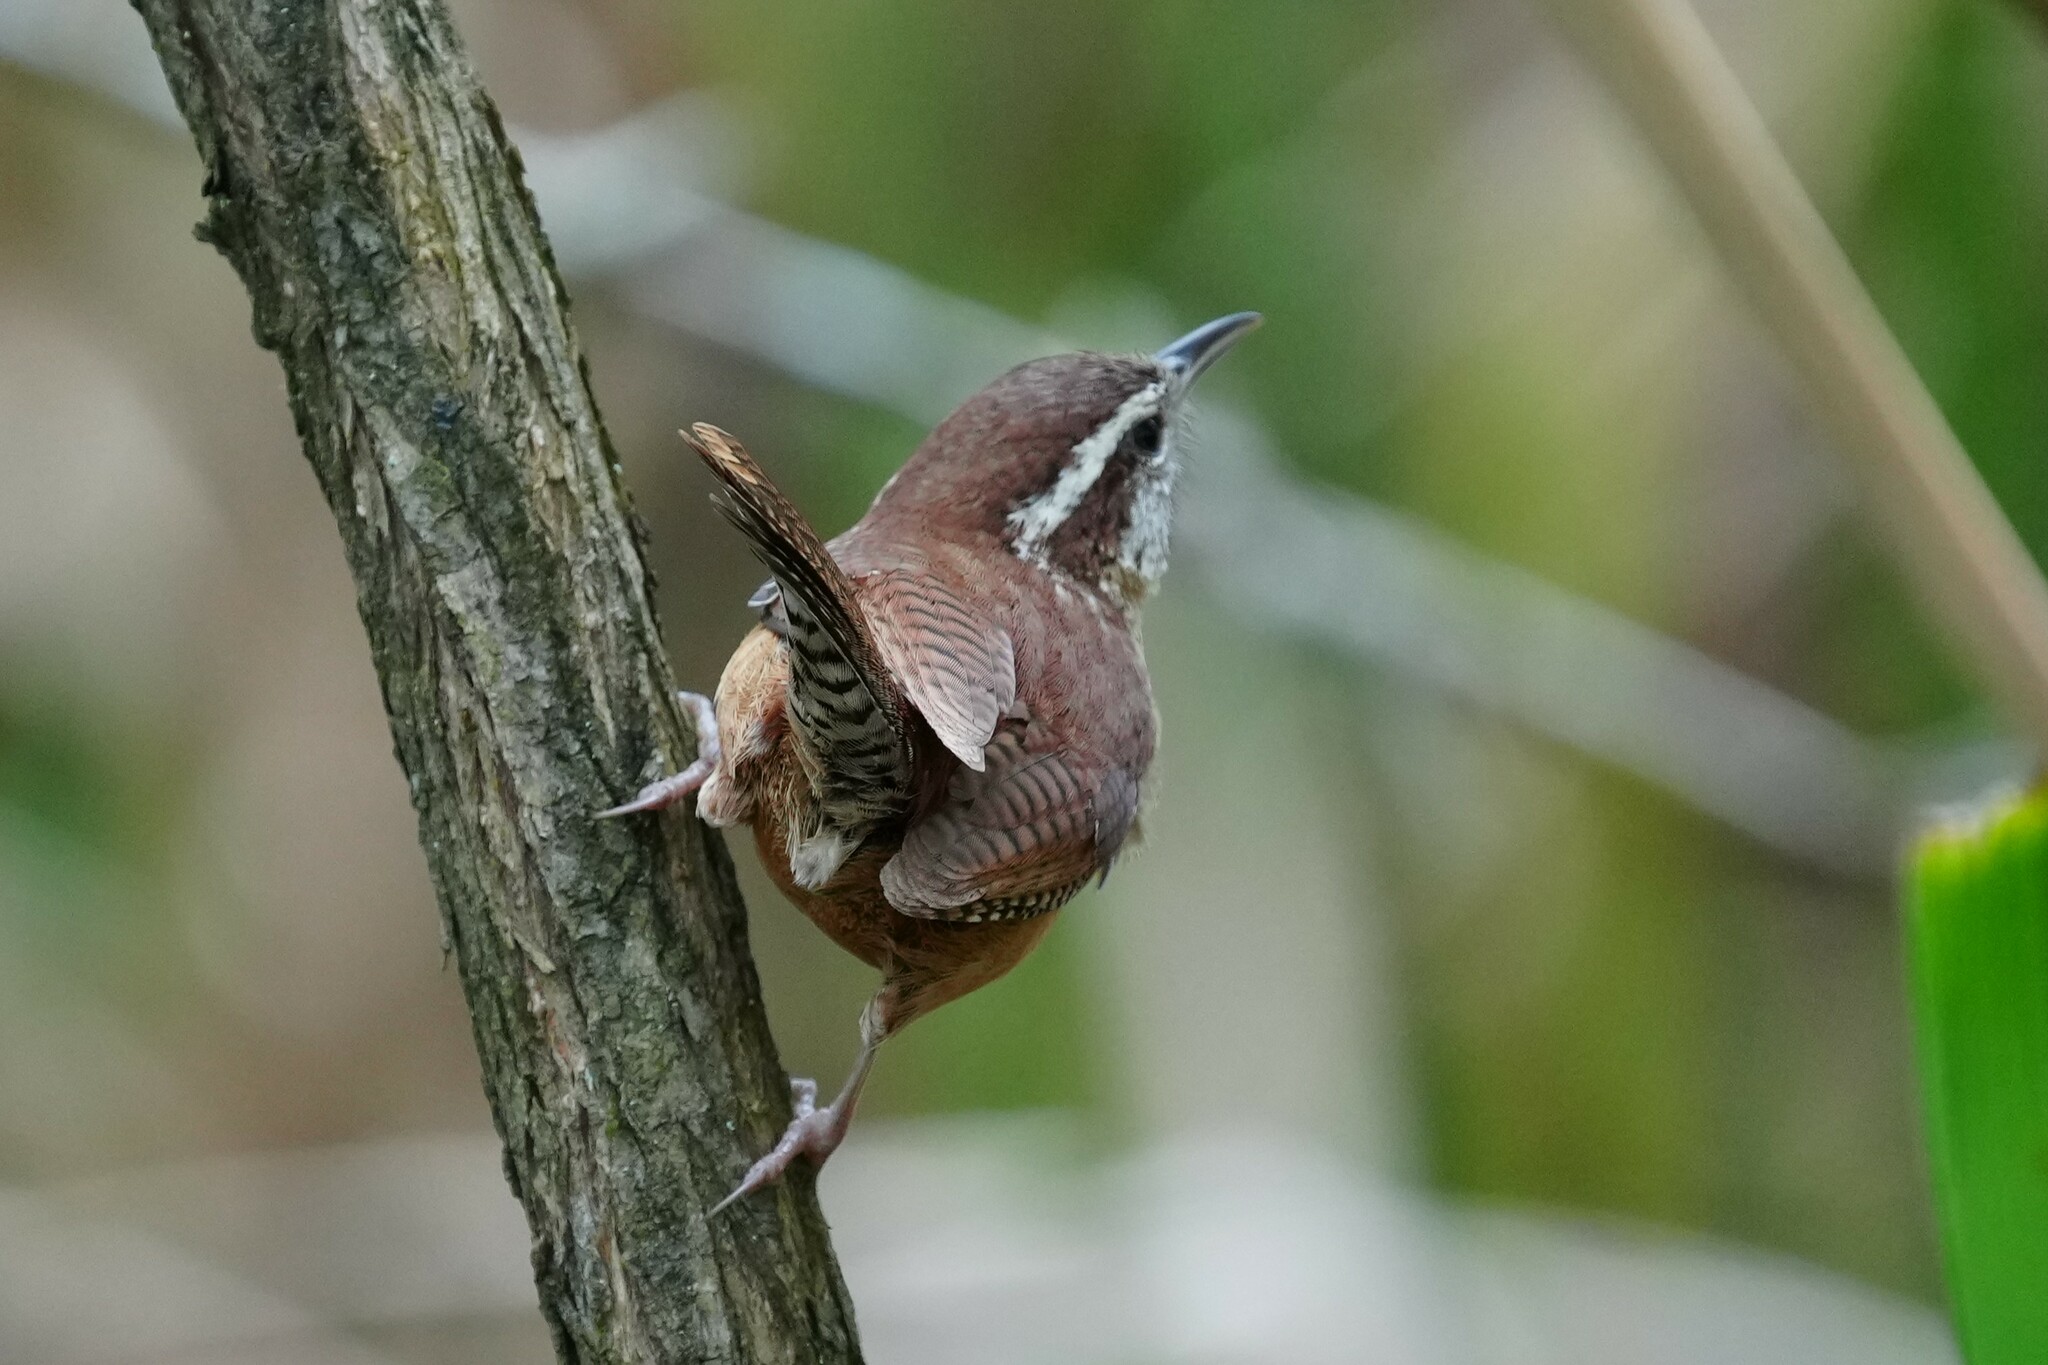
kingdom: Animalia
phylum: Chordata
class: Aves
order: Passeriformes
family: Troglodytidae
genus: Thryothorus
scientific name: Thryothorus ludovicianus
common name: Carolina wren
